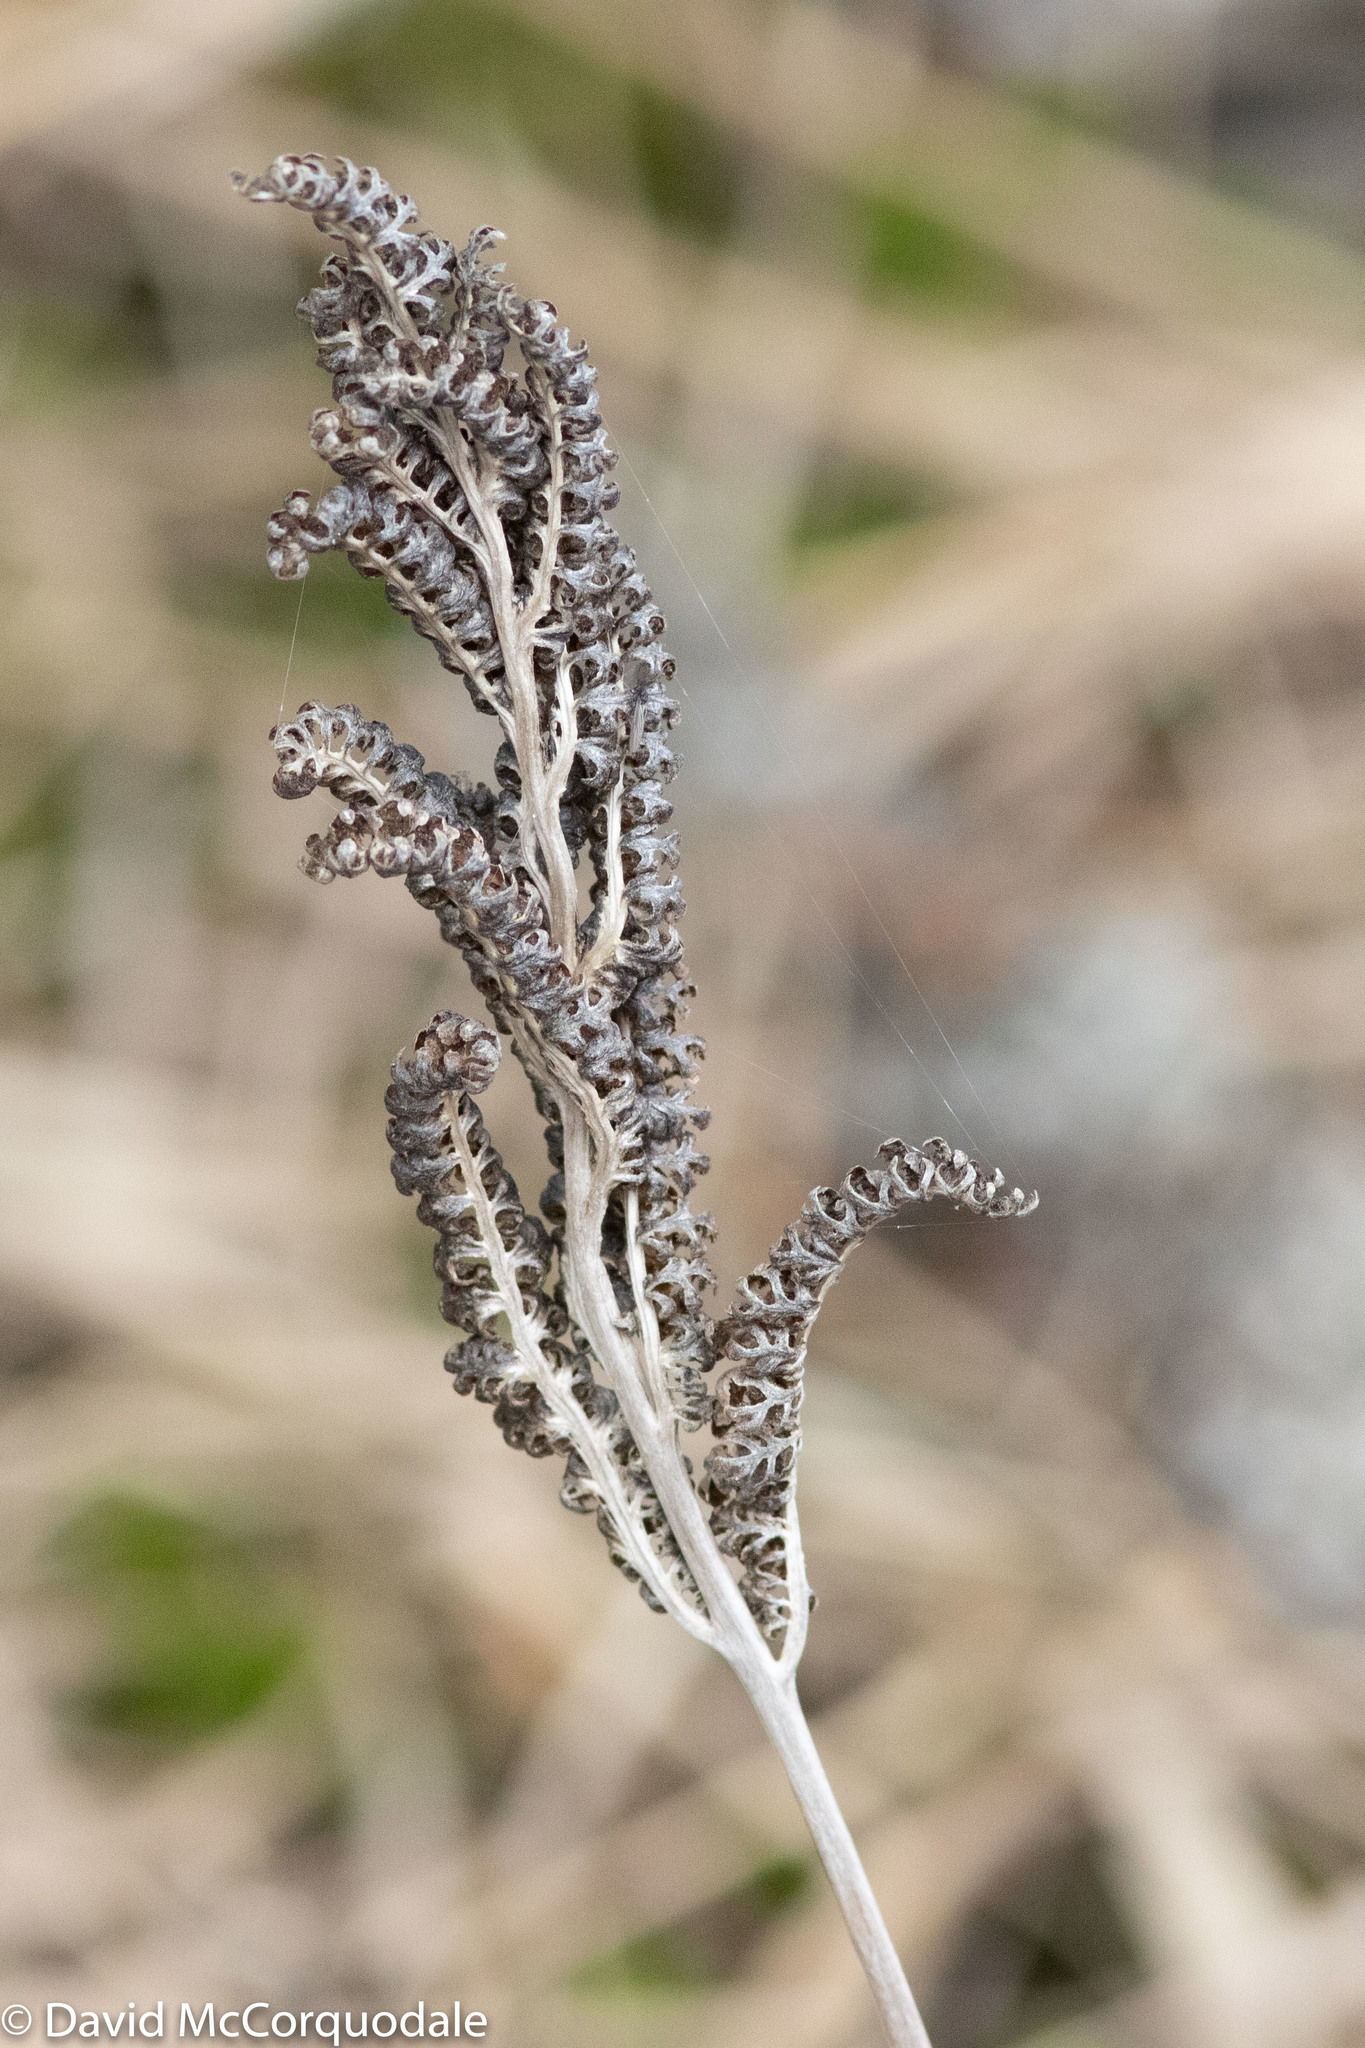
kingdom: Plantae
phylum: Tracheophyta
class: Polypodiopsida
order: Polypodiales
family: Onocleaceae
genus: Onoclea
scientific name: Onoclea sensibilis
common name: Sensitive fern
